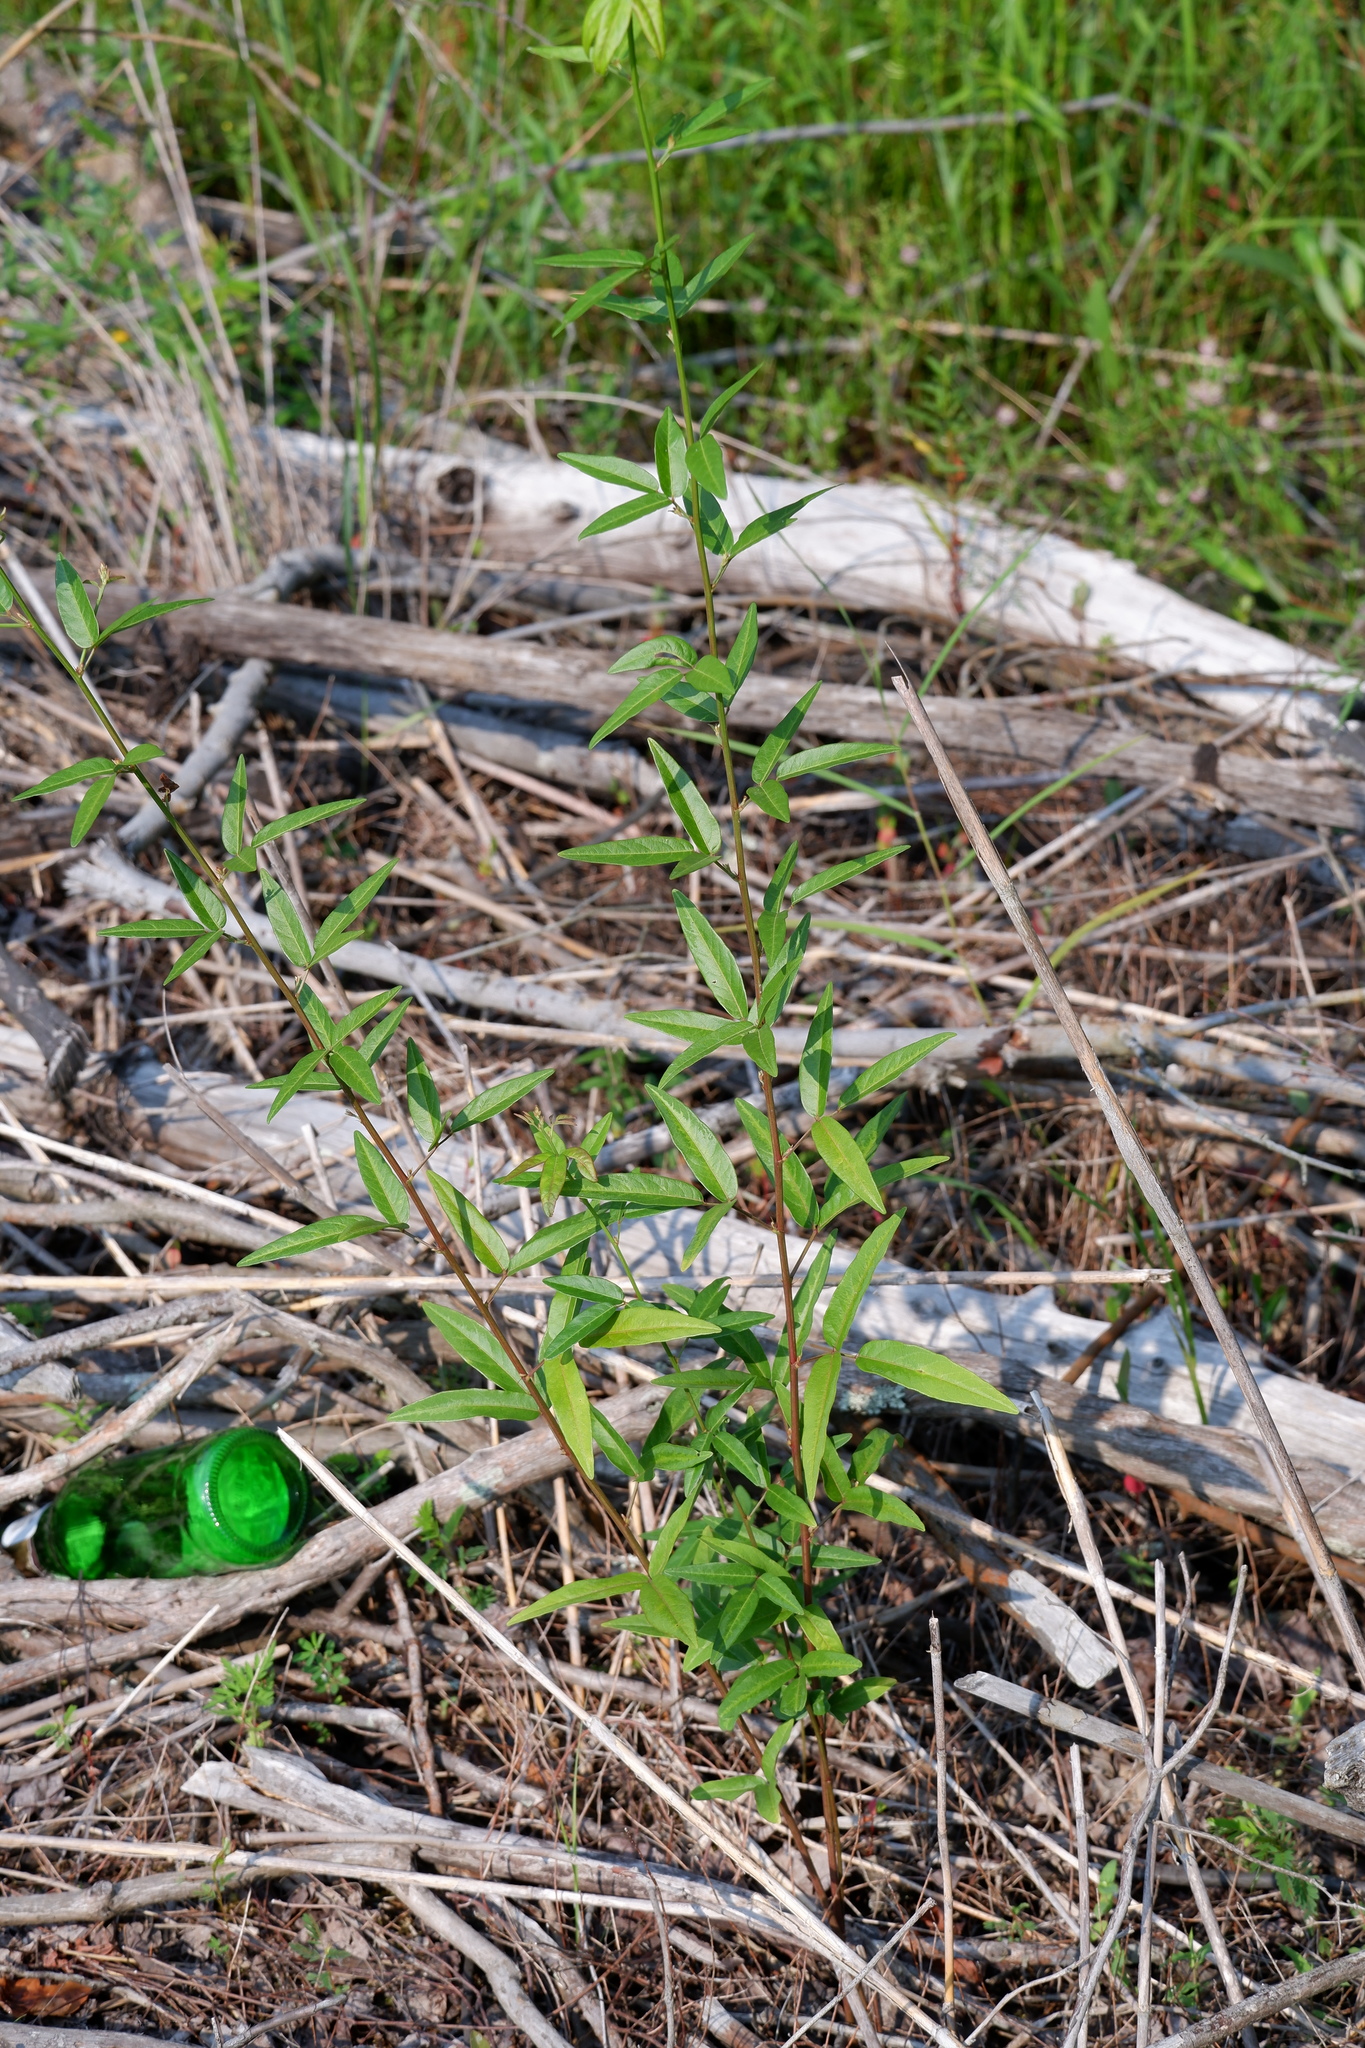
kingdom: Plantae
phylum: Tracheophyta
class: Magnoliopsida
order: Fabales
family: Fabaceae
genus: Desmodium
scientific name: Desmodium paniculatum
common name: Panicled tick-clover
